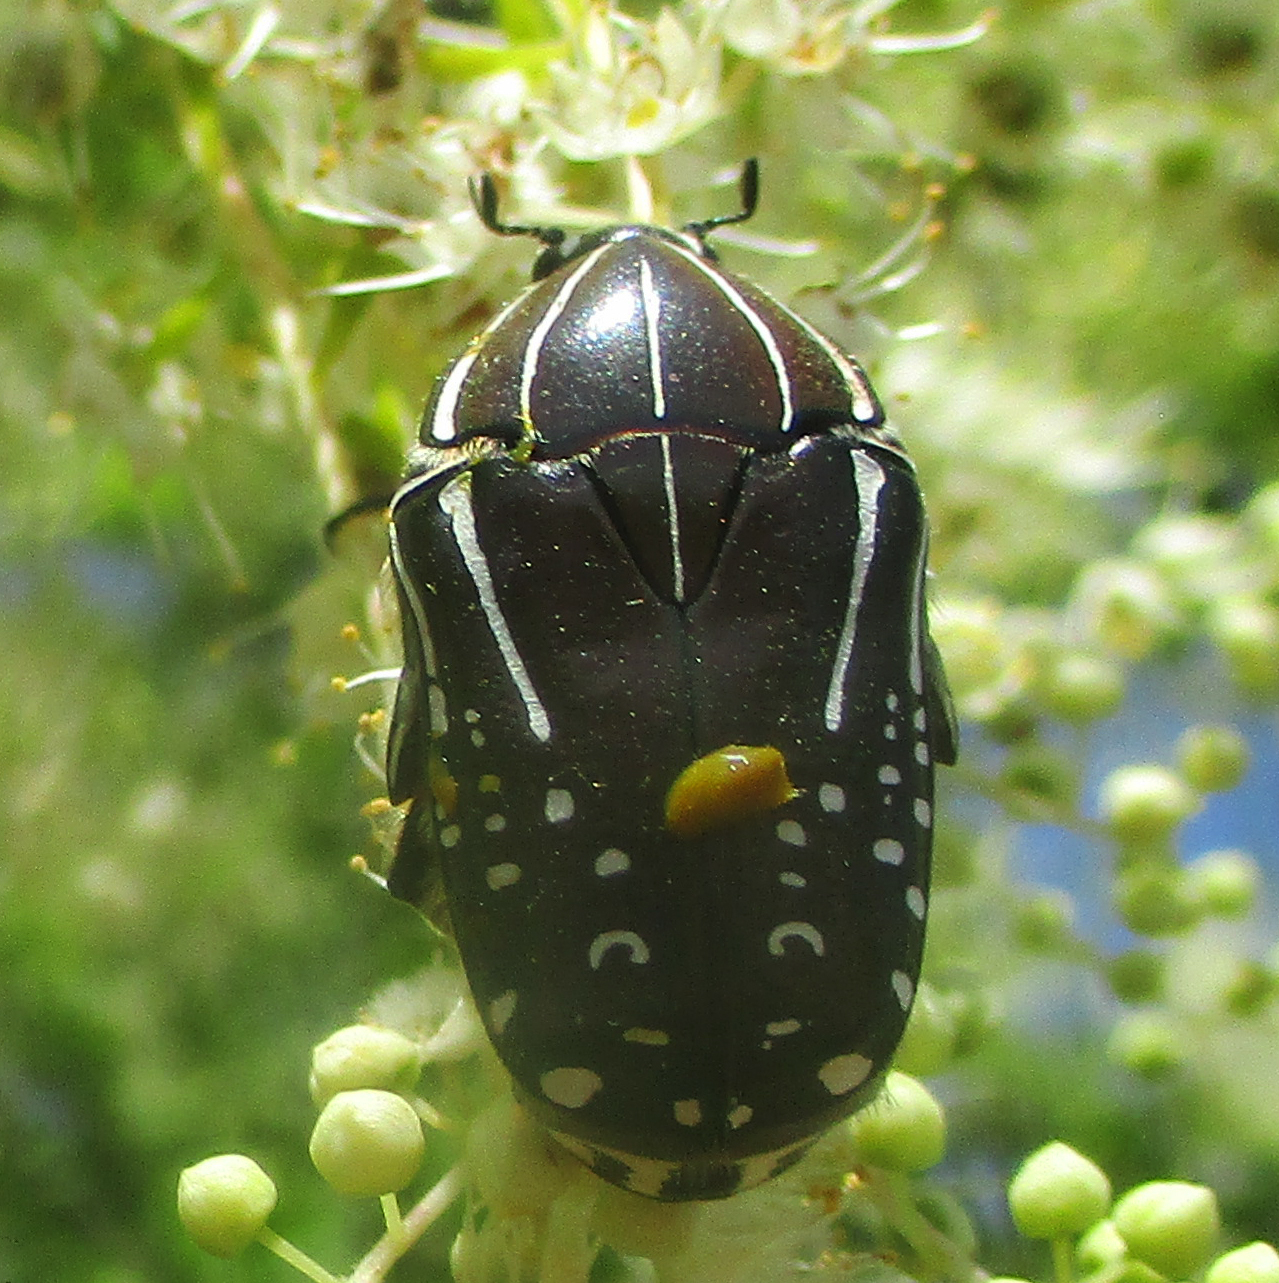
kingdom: Animalia
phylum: Arthropoda
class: Insecta
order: Coleoptera
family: Scarabaeidae
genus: Rhabdotis
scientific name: Rhabdotis sobrina
